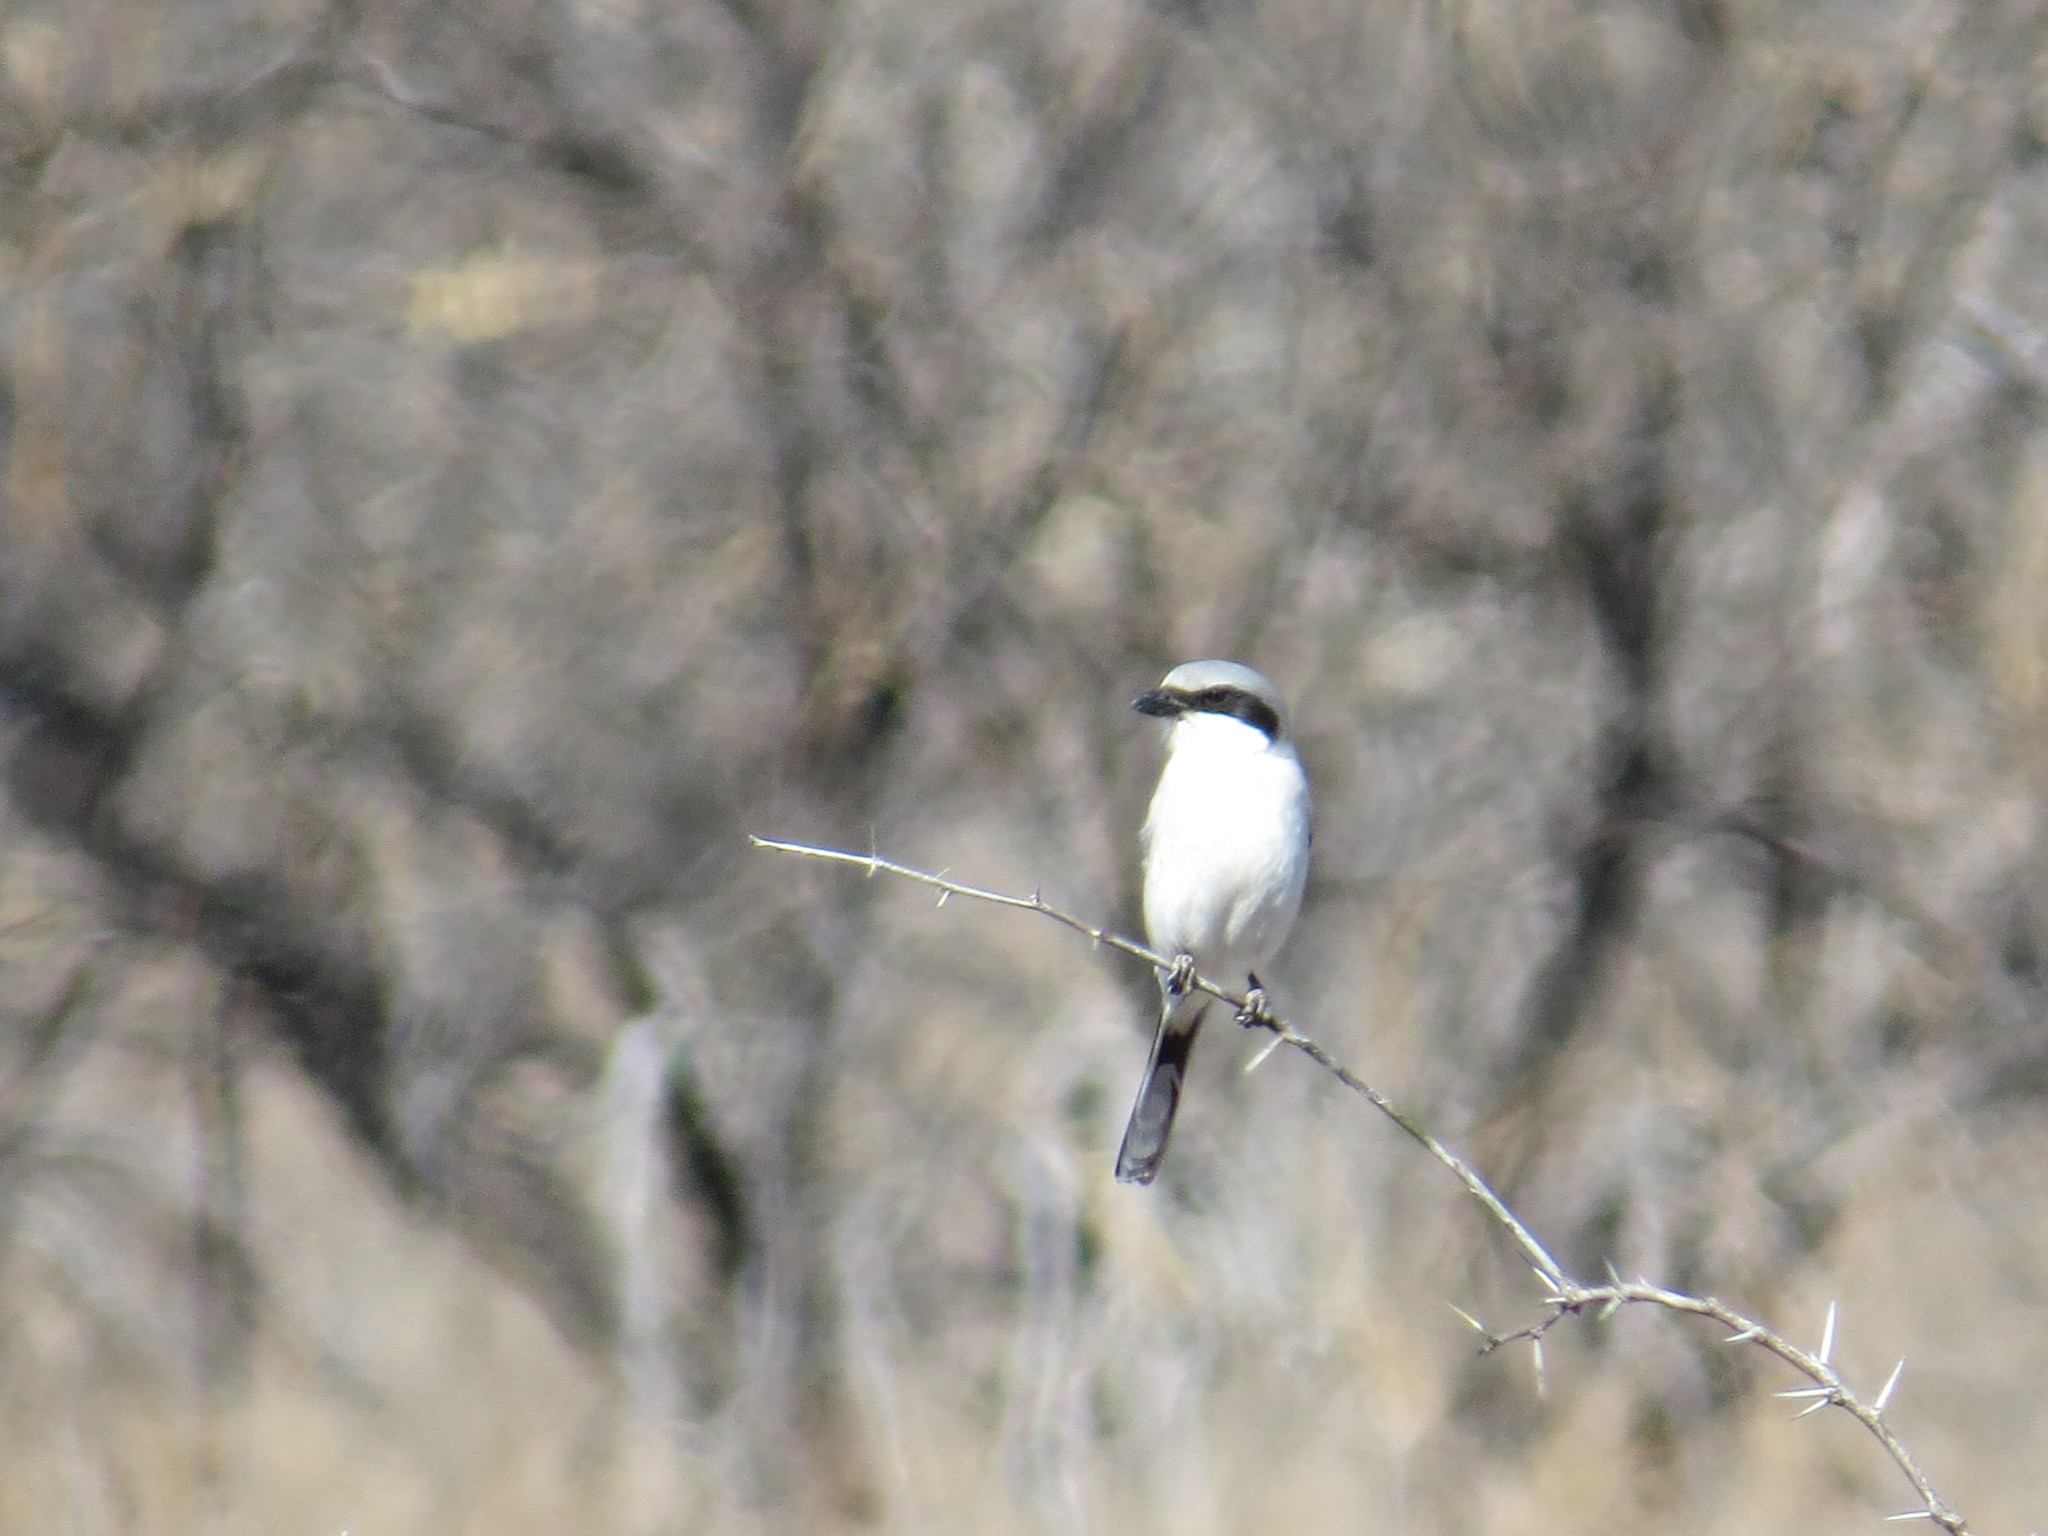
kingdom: Animalia
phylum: Chordata
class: Aves
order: Passeriformes
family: Laniidae
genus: Lanius
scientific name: Lanius ludovicianus
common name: Loggerhead shrike
